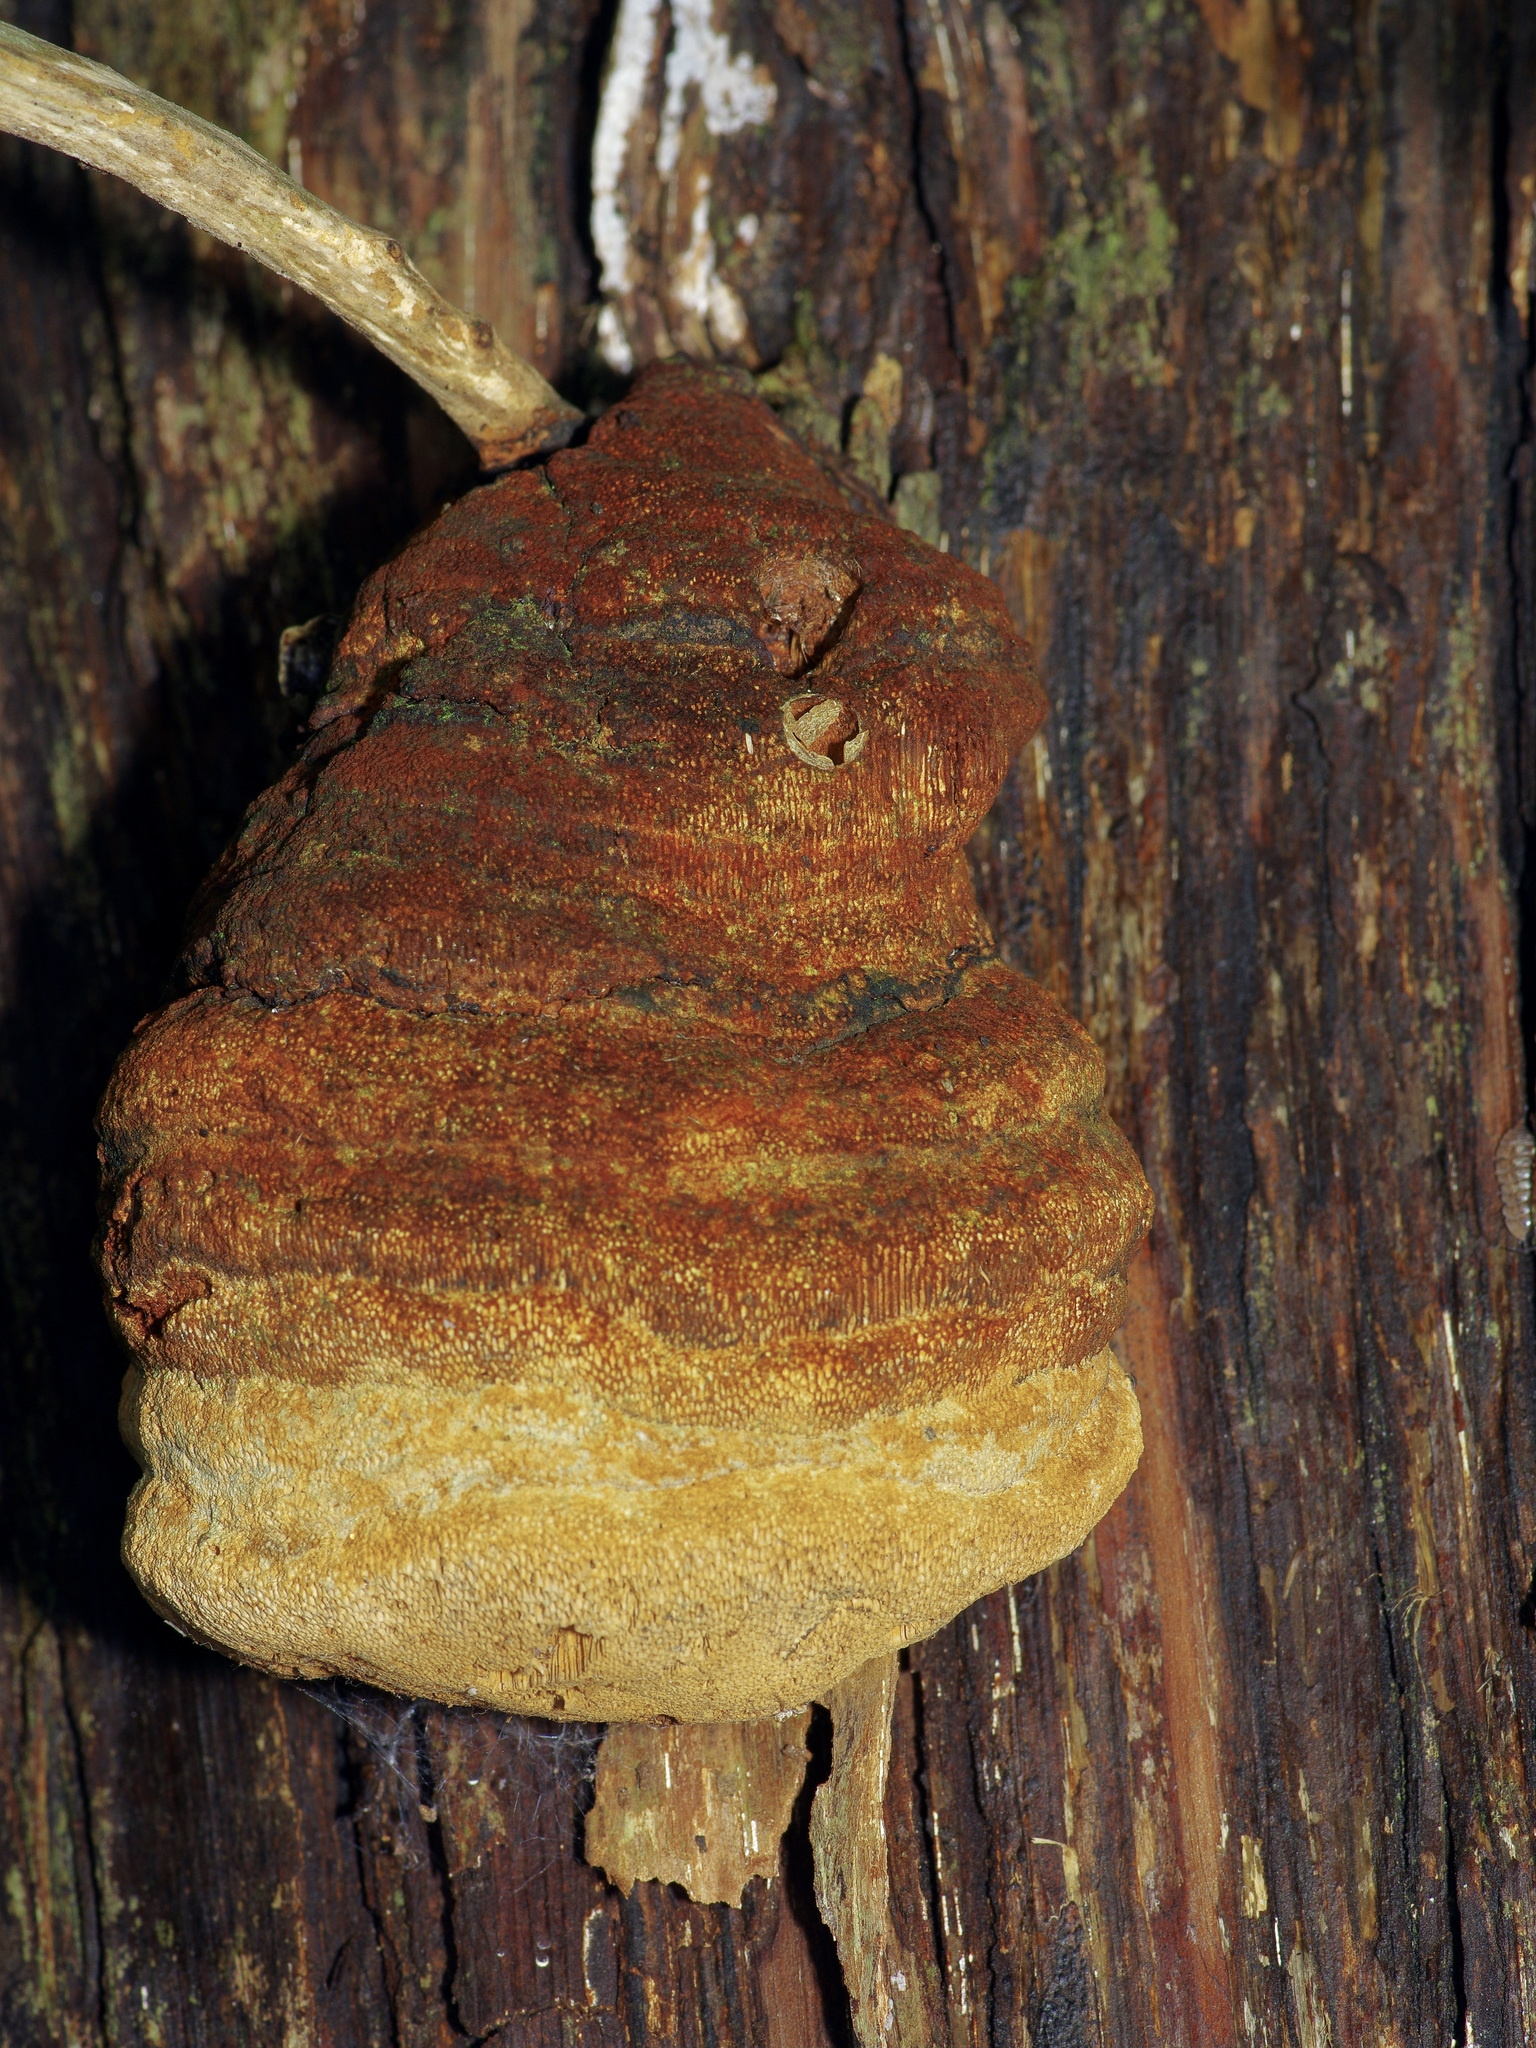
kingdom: Fungi
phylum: Basidiomycota
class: Agaricomycetes
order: Polyporales
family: Polyporaceae
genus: Pyrofomes
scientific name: Pyrofomes juniperinus
